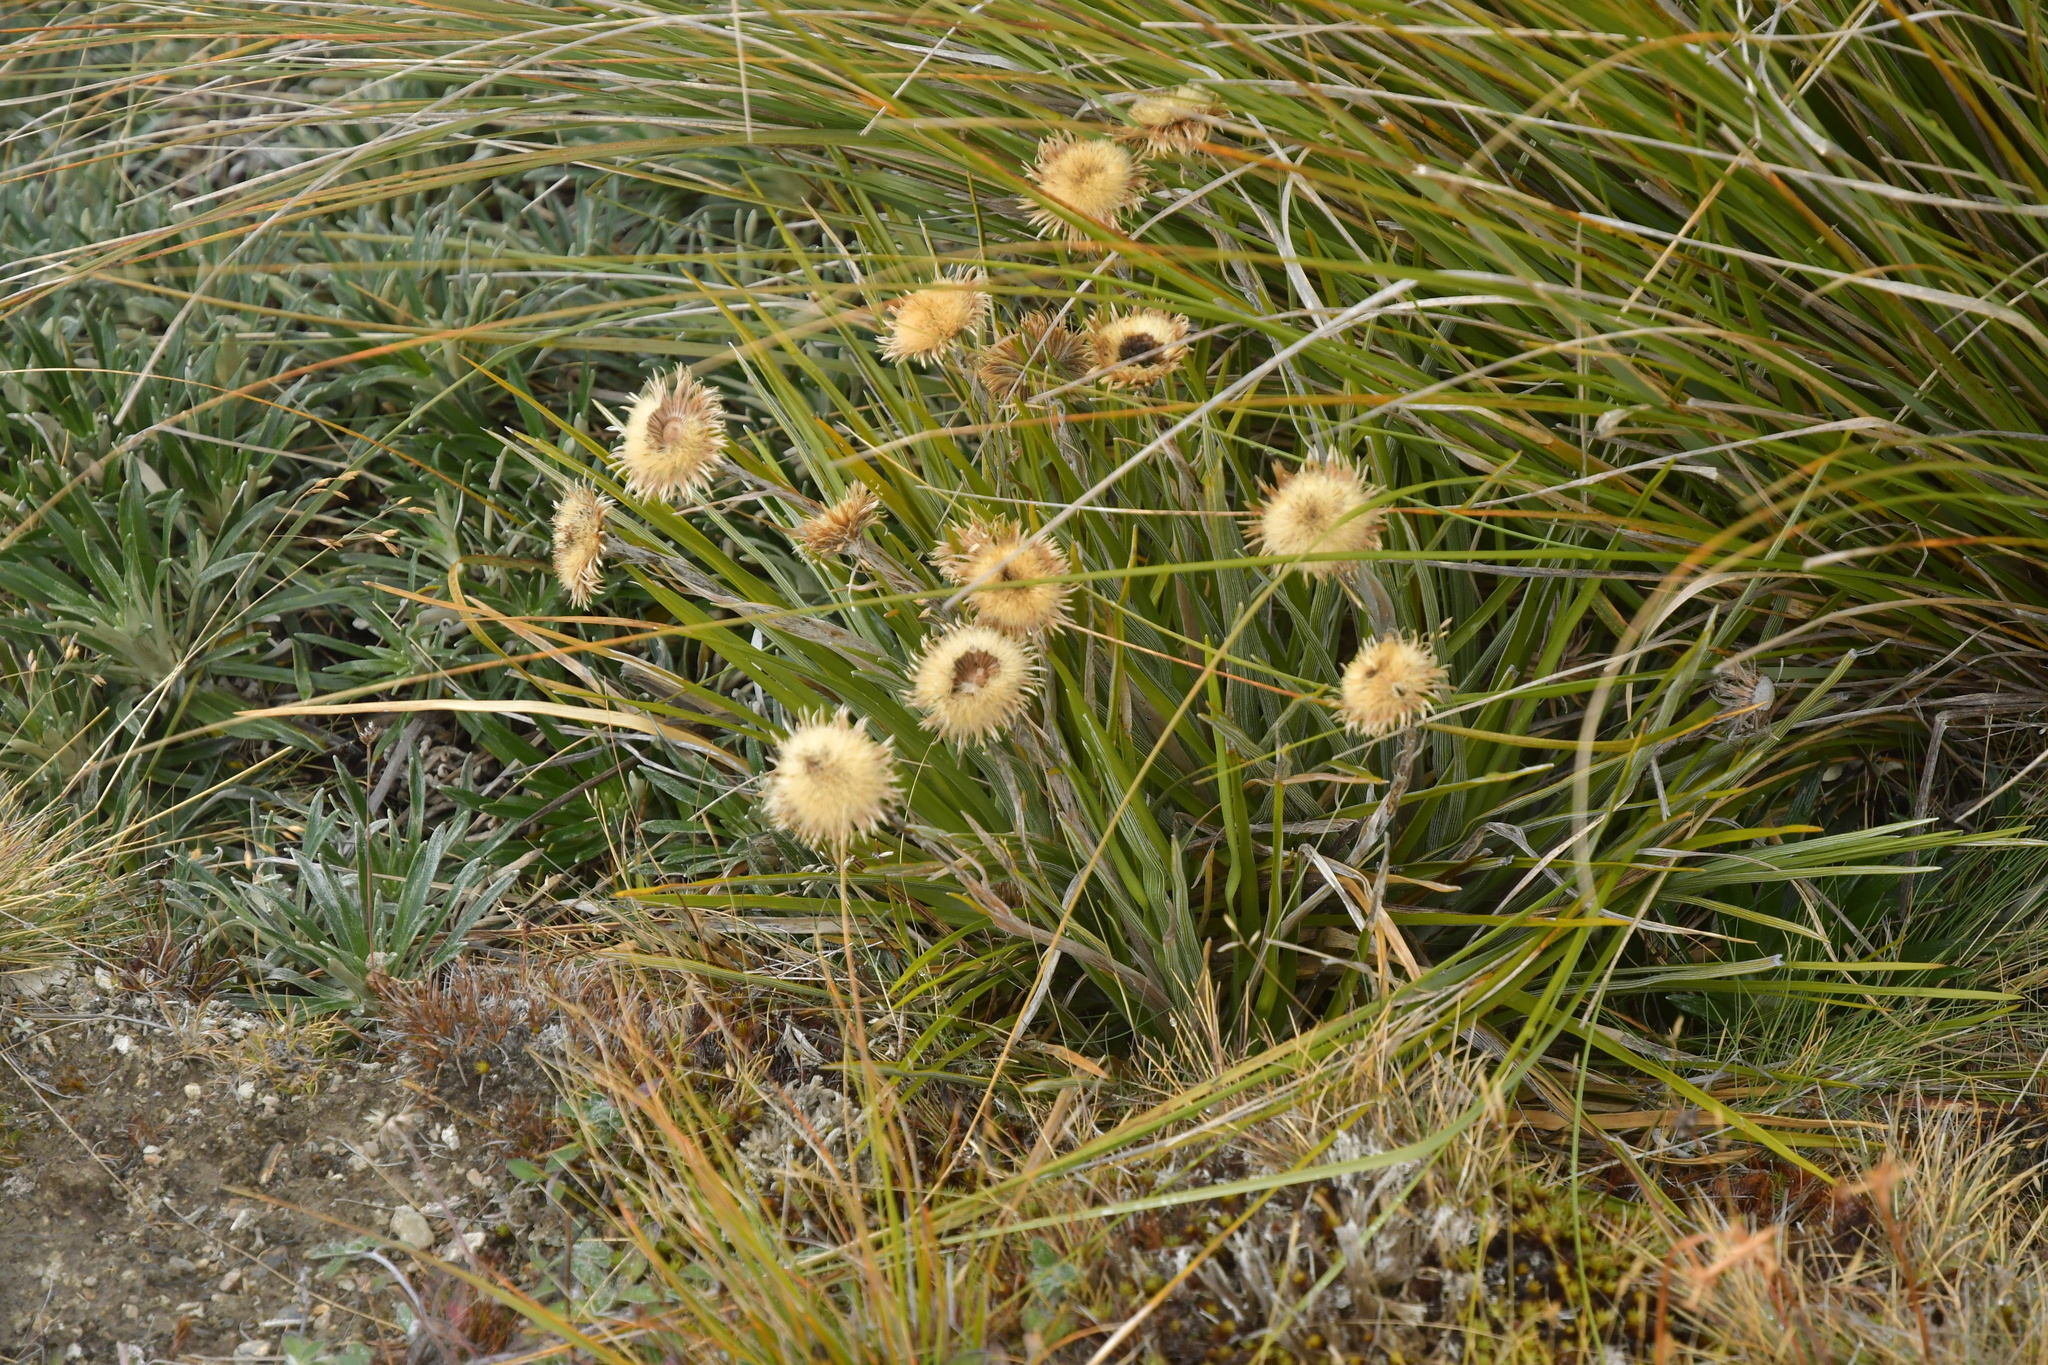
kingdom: Plantae
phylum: Tracheophyta
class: Magnoliopsida
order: Asterales
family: Asteraceae
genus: Celmisia
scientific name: Celmisia lyallii
